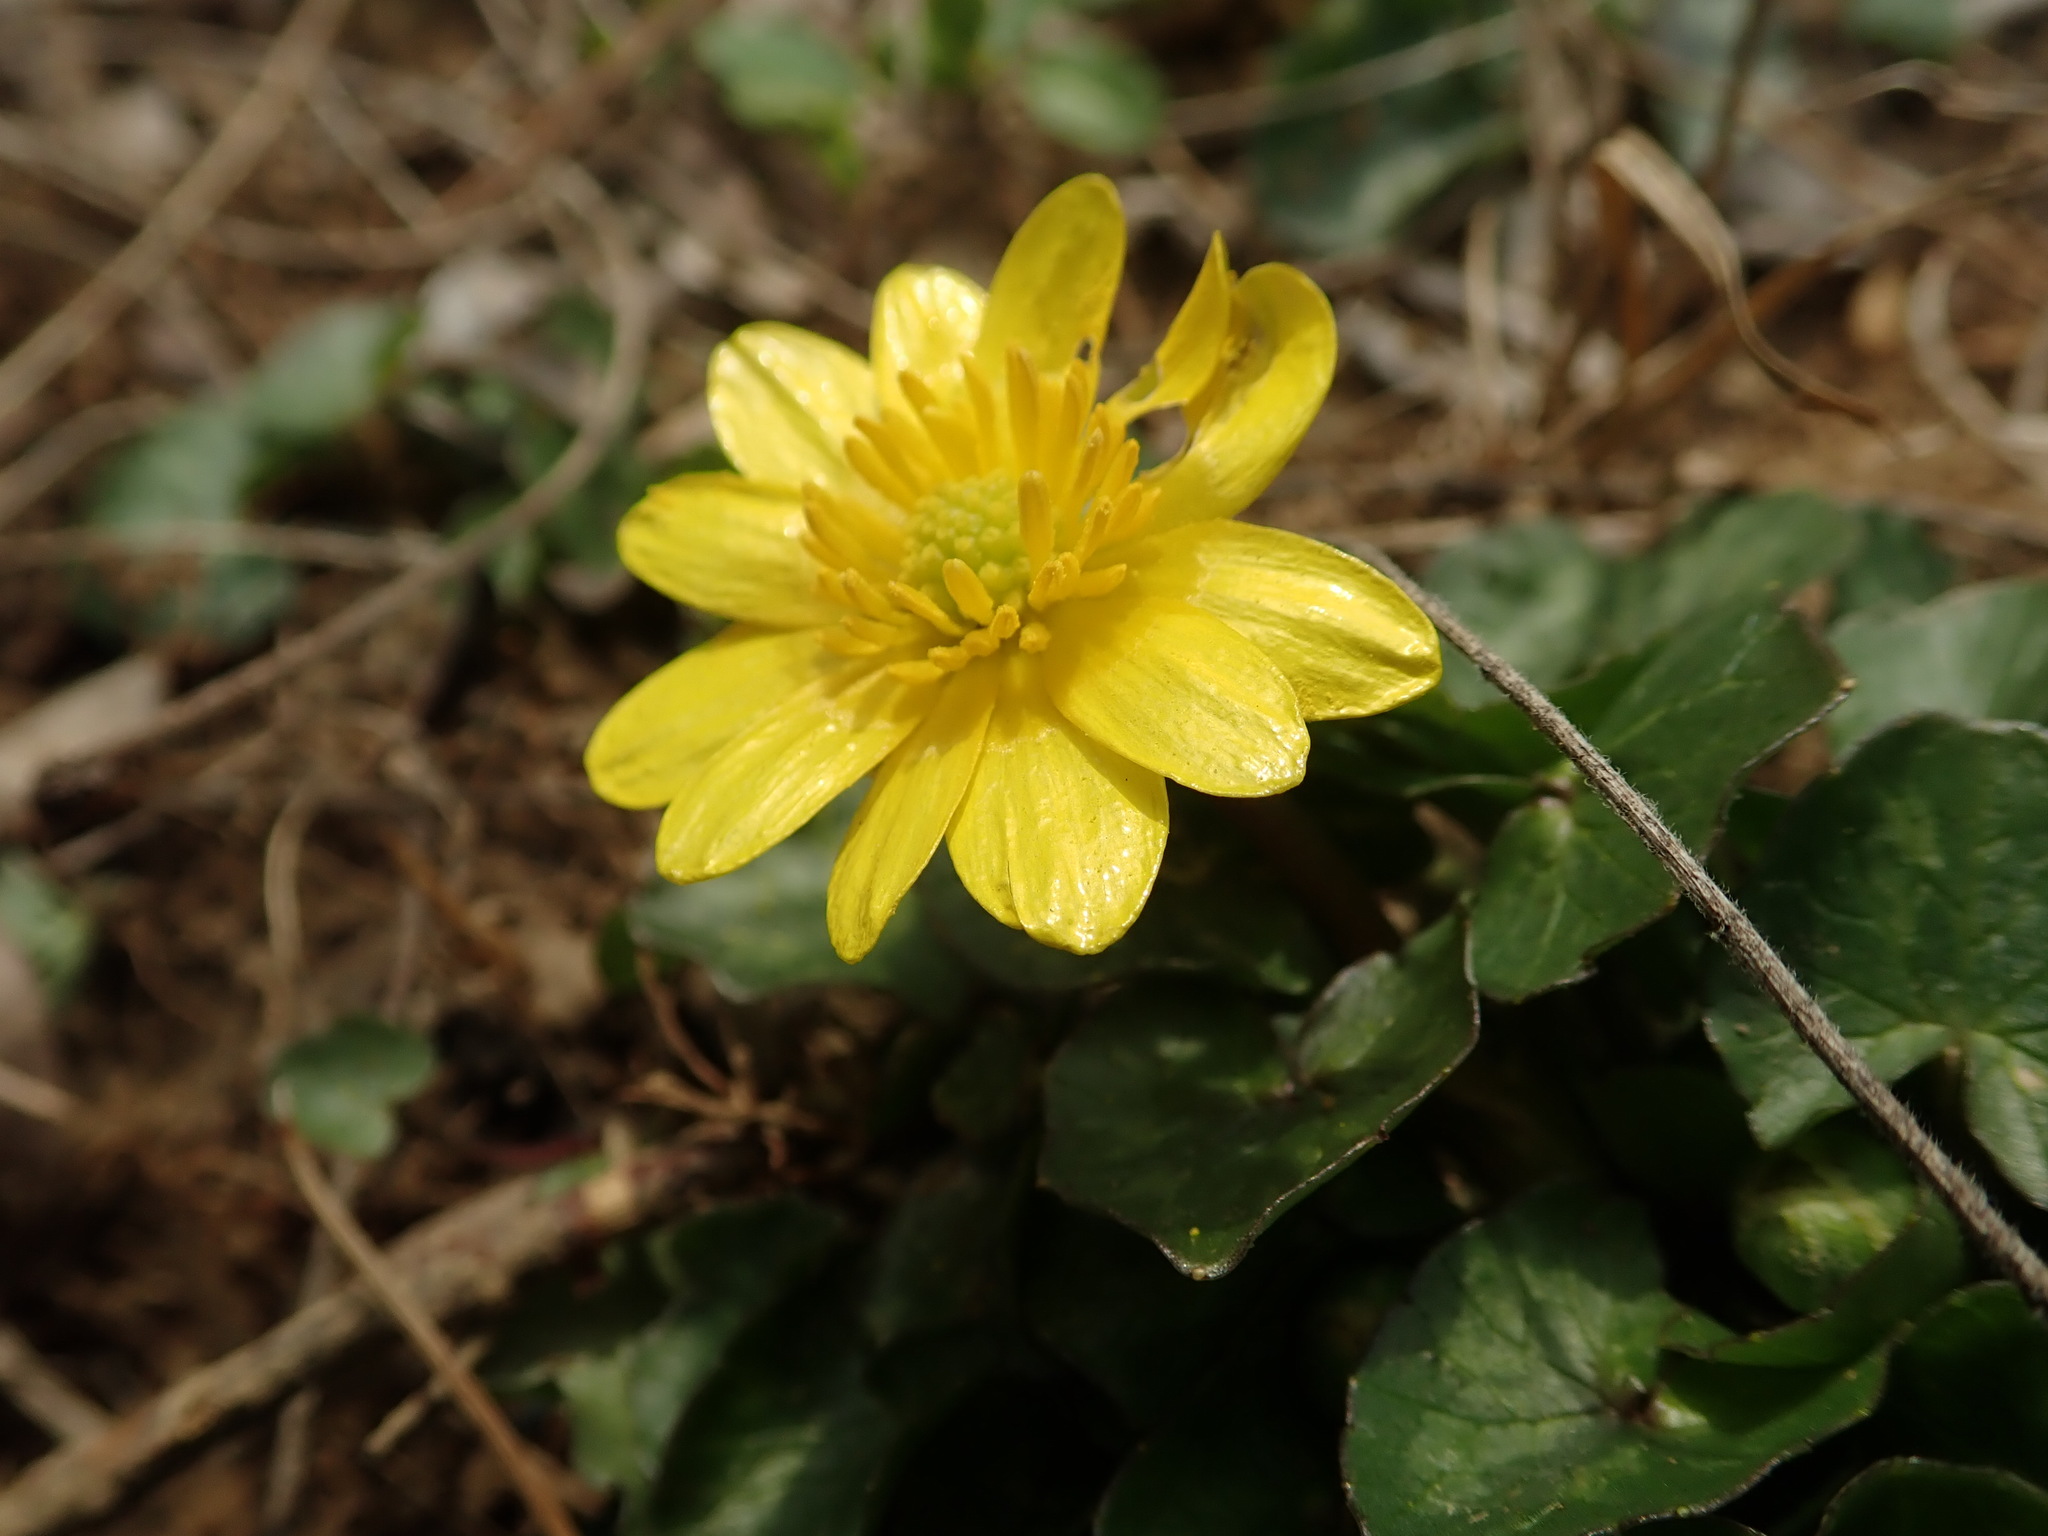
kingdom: Plantae
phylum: Tracheophyta
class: Magnoliopsida
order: Ranunculales
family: Ranunculaceae
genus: Ficaria
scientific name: Ficaria verna
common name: Lesser celandine
